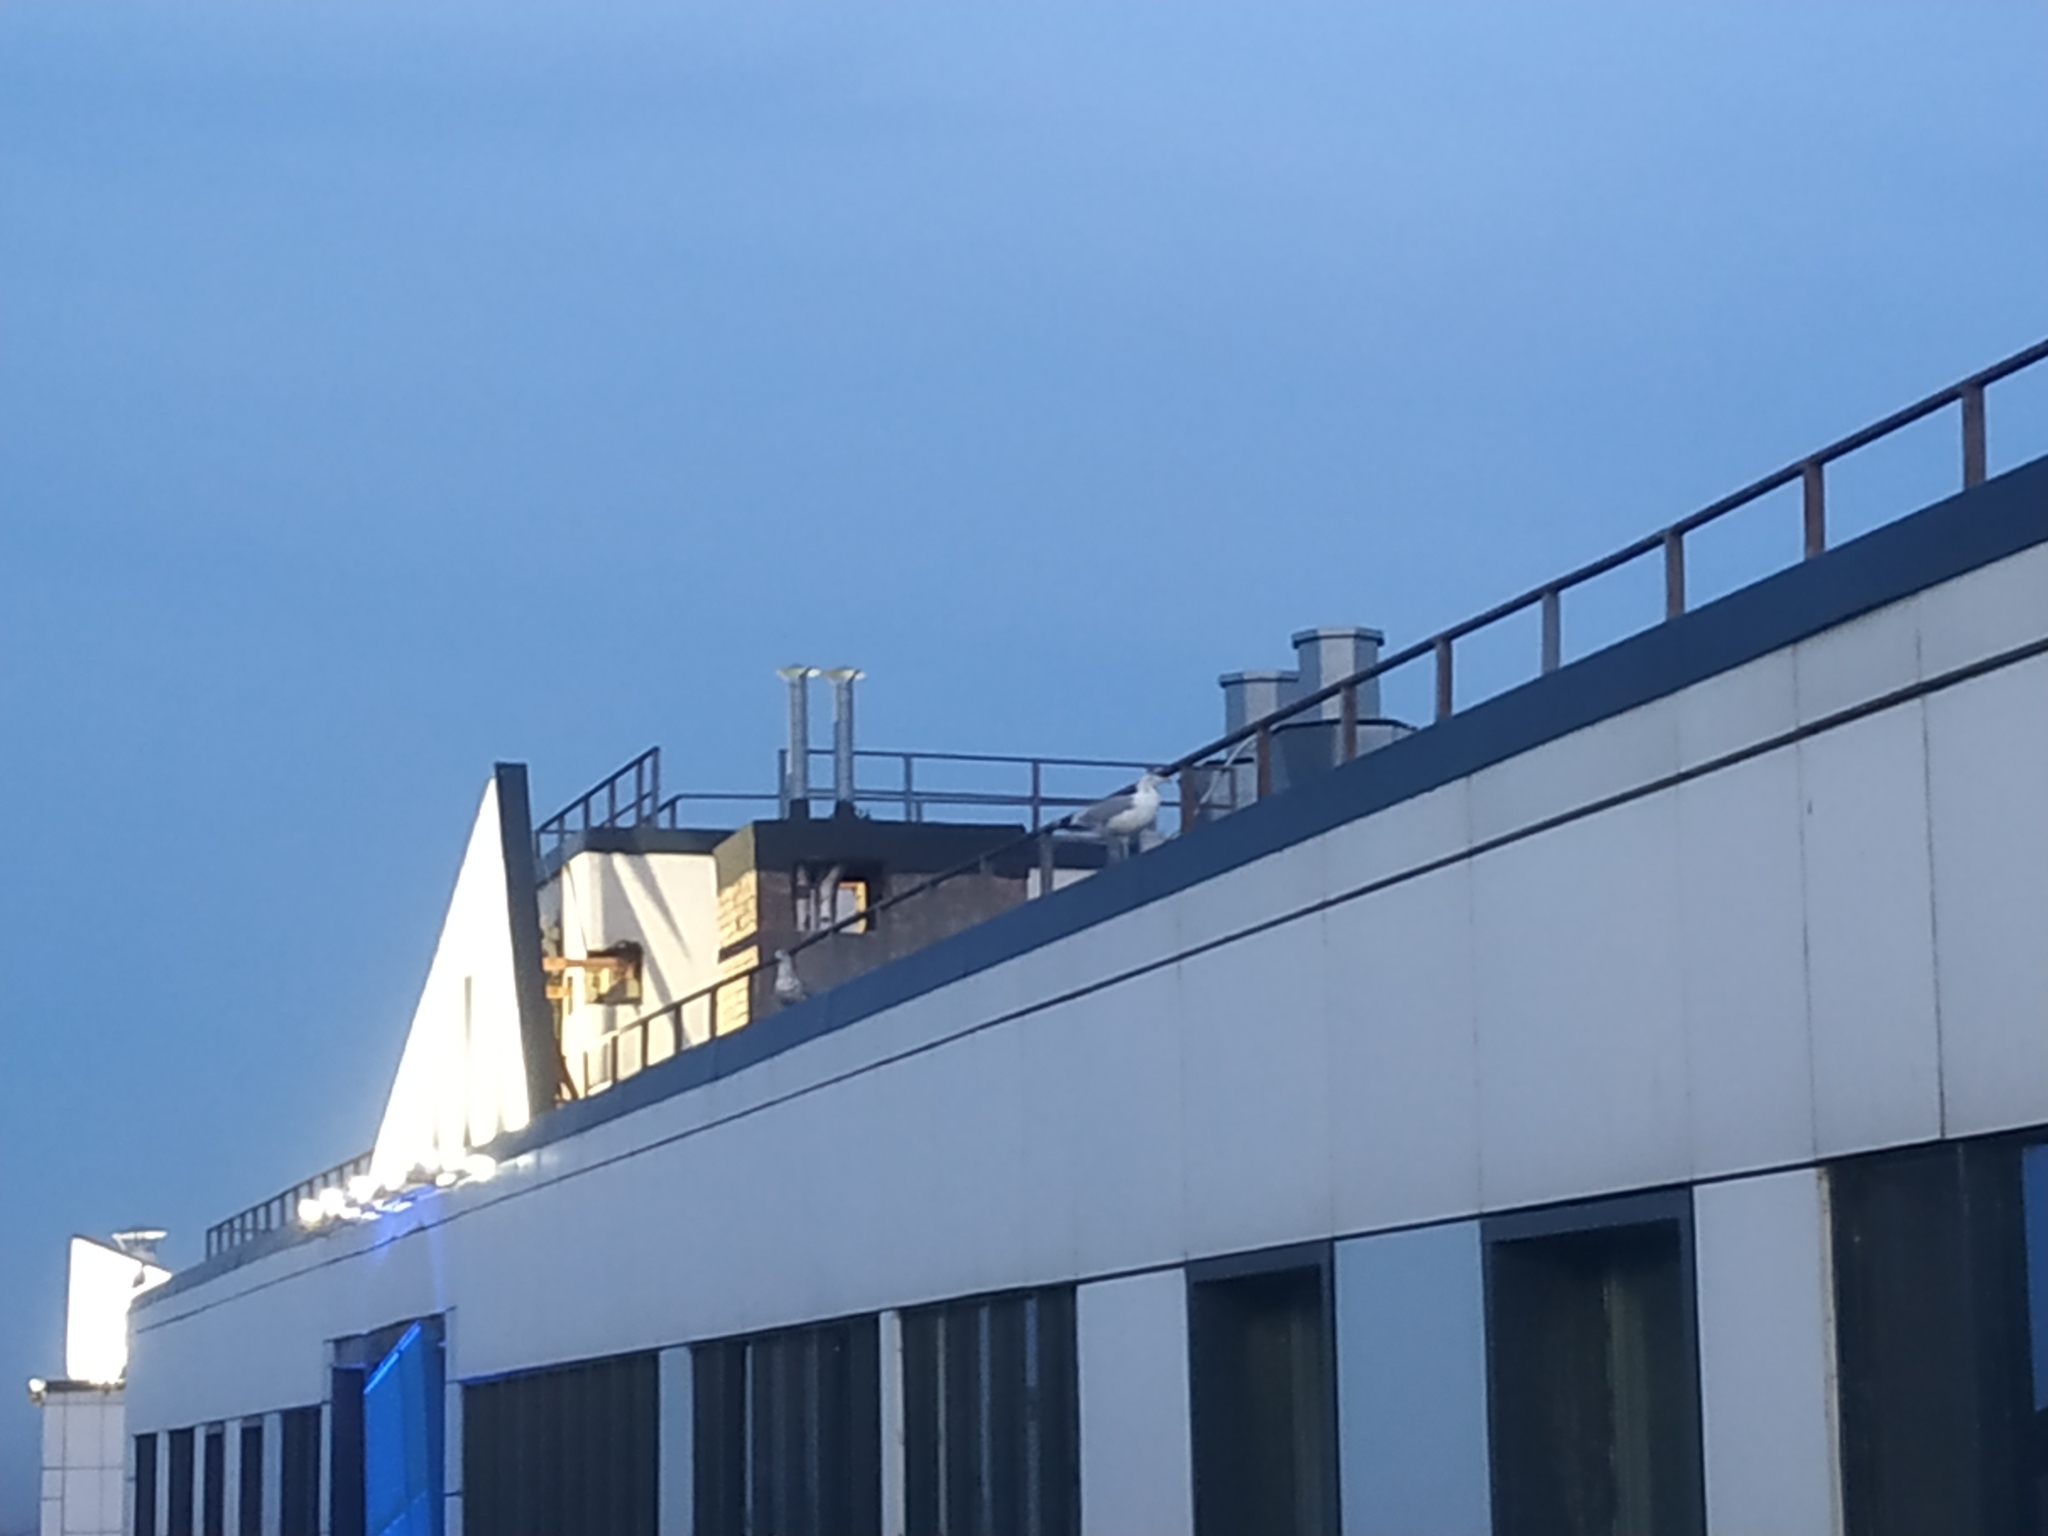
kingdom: Animalia
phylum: Chordata
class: Aves
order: Charadriiformes
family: Laridae
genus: Larus
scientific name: Larus argentatus
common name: Herring gull
